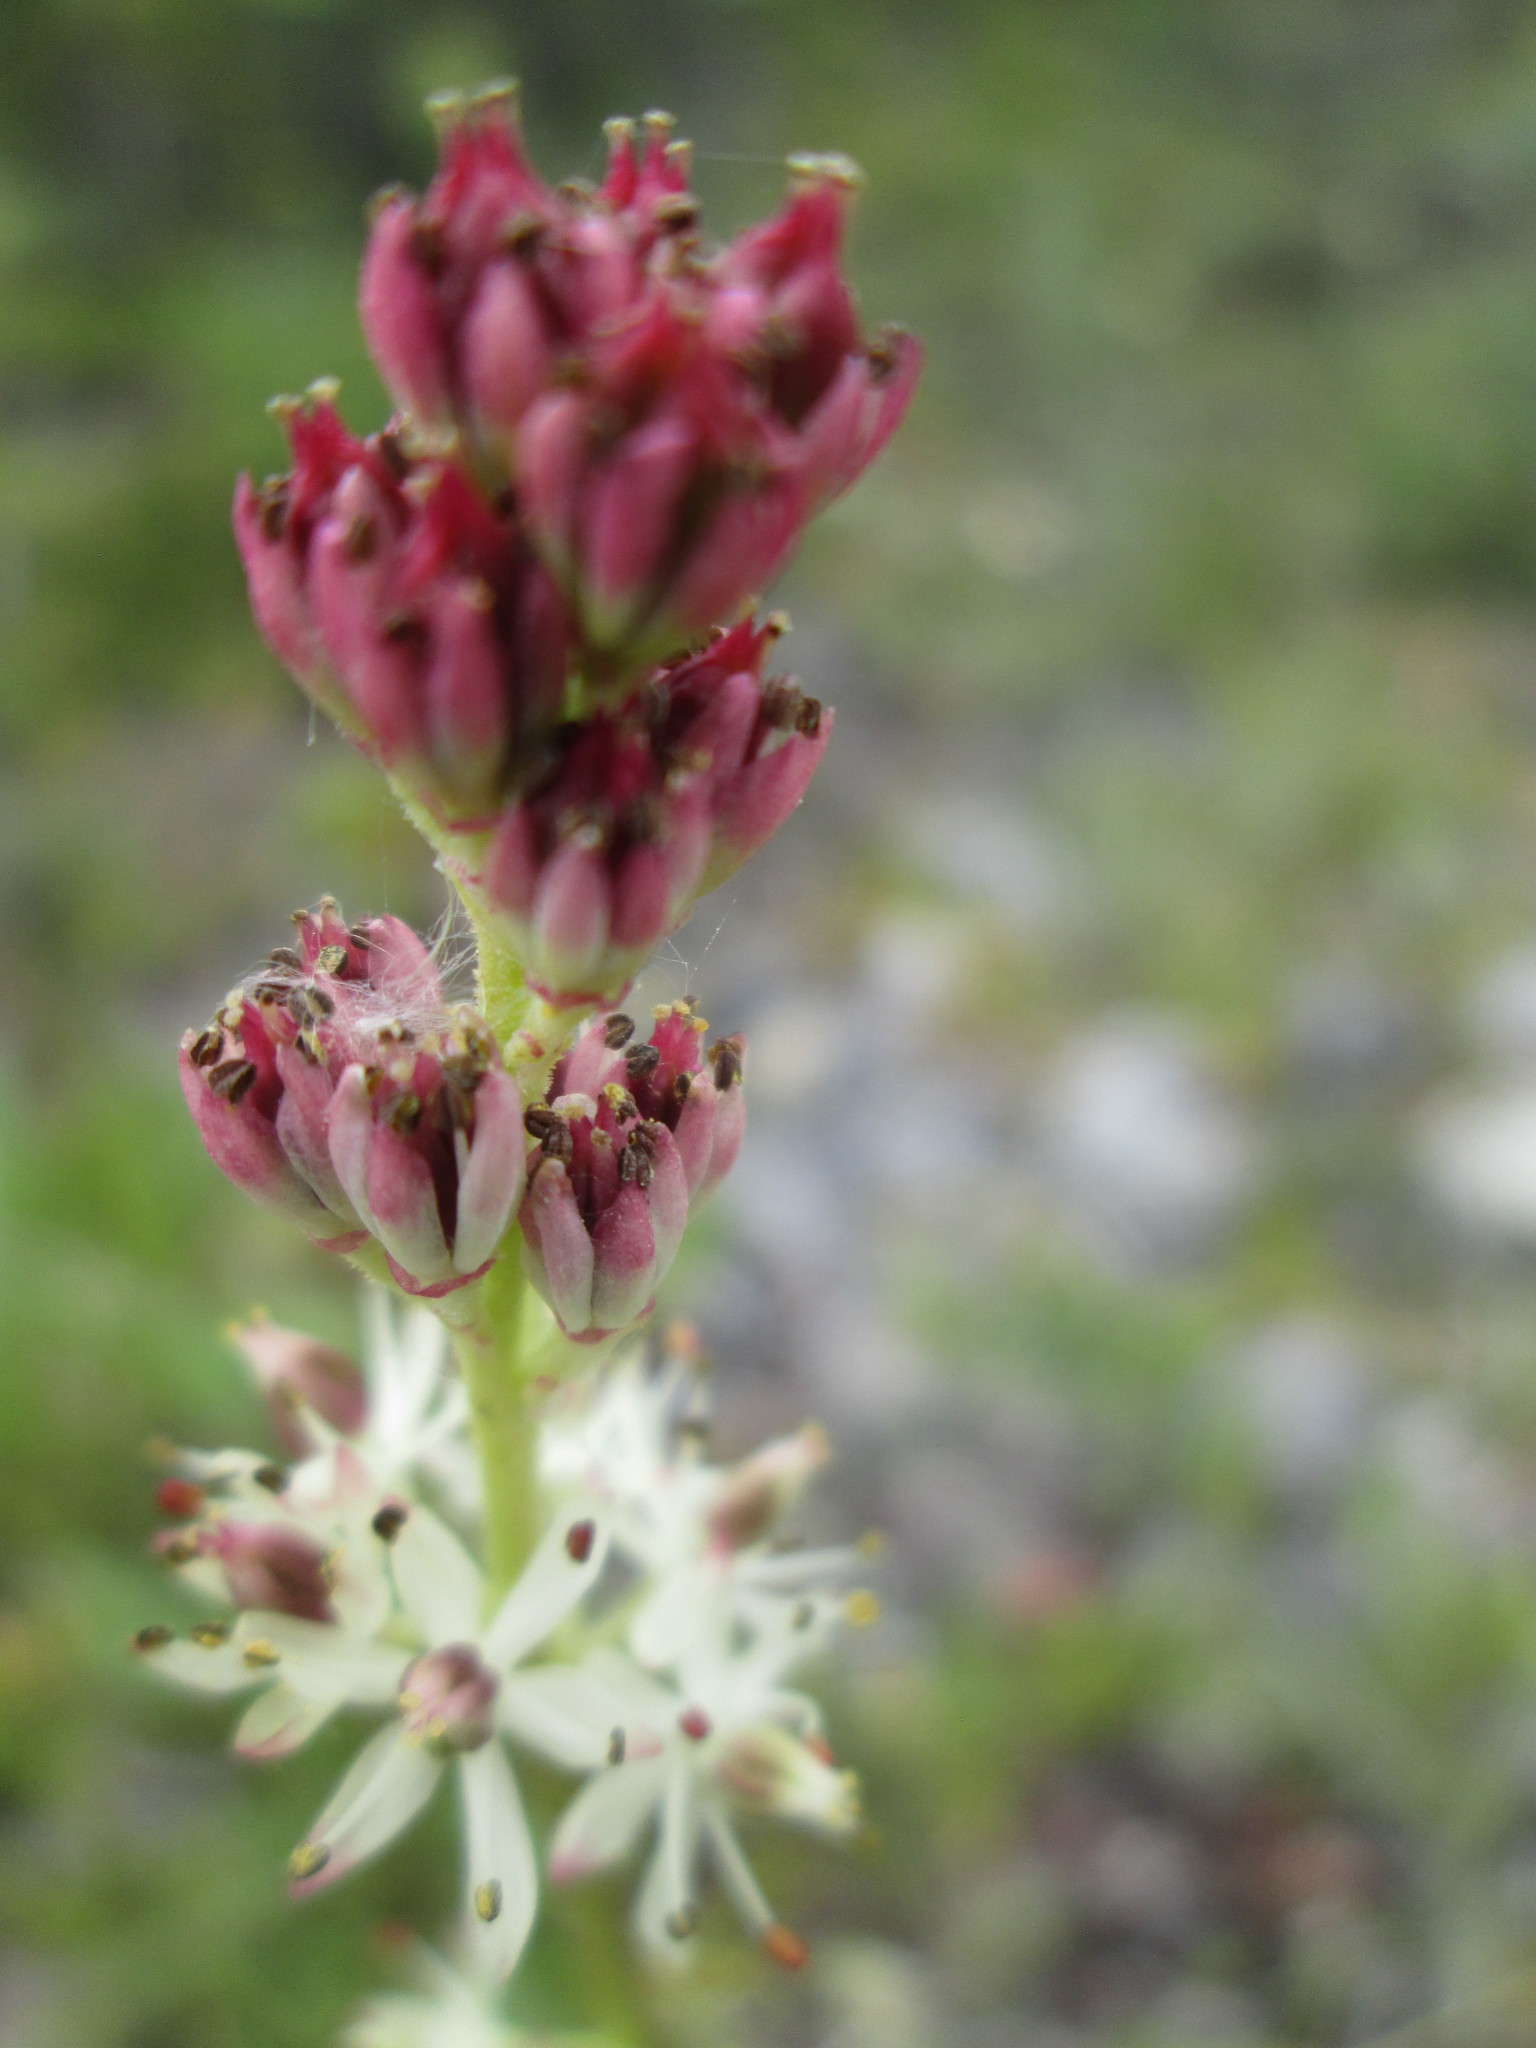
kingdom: Plantae
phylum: Tracheophyta
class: Liliopsida
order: Alismatales
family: Tofieldiaceae
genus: Triantha
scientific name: Triantha glutinosa
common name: Glutinous tofieldia
